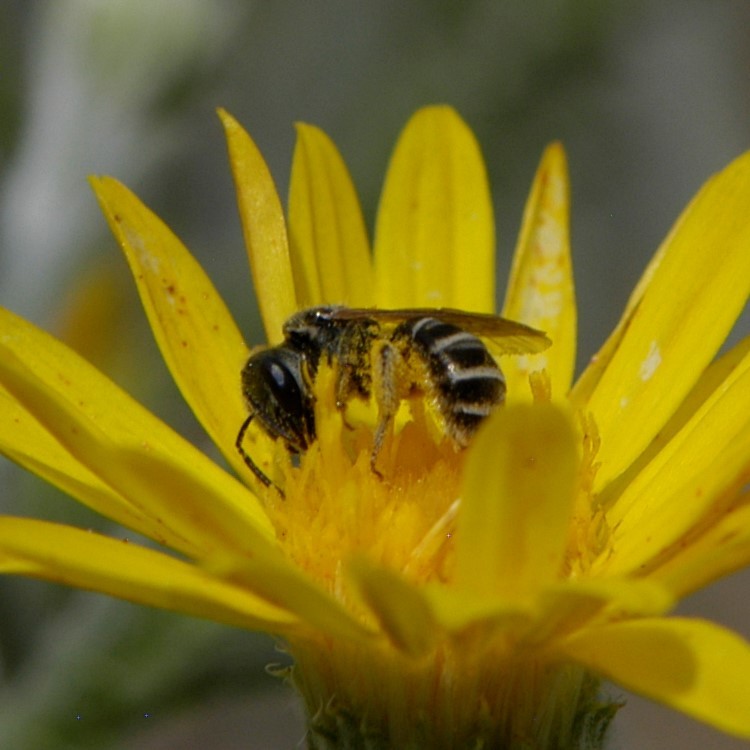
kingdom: Animalia
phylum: Arthropoda
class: Insecta
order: Hymenoptera
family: Halictidae
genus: Halictus
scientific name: Halictus tripartitus
